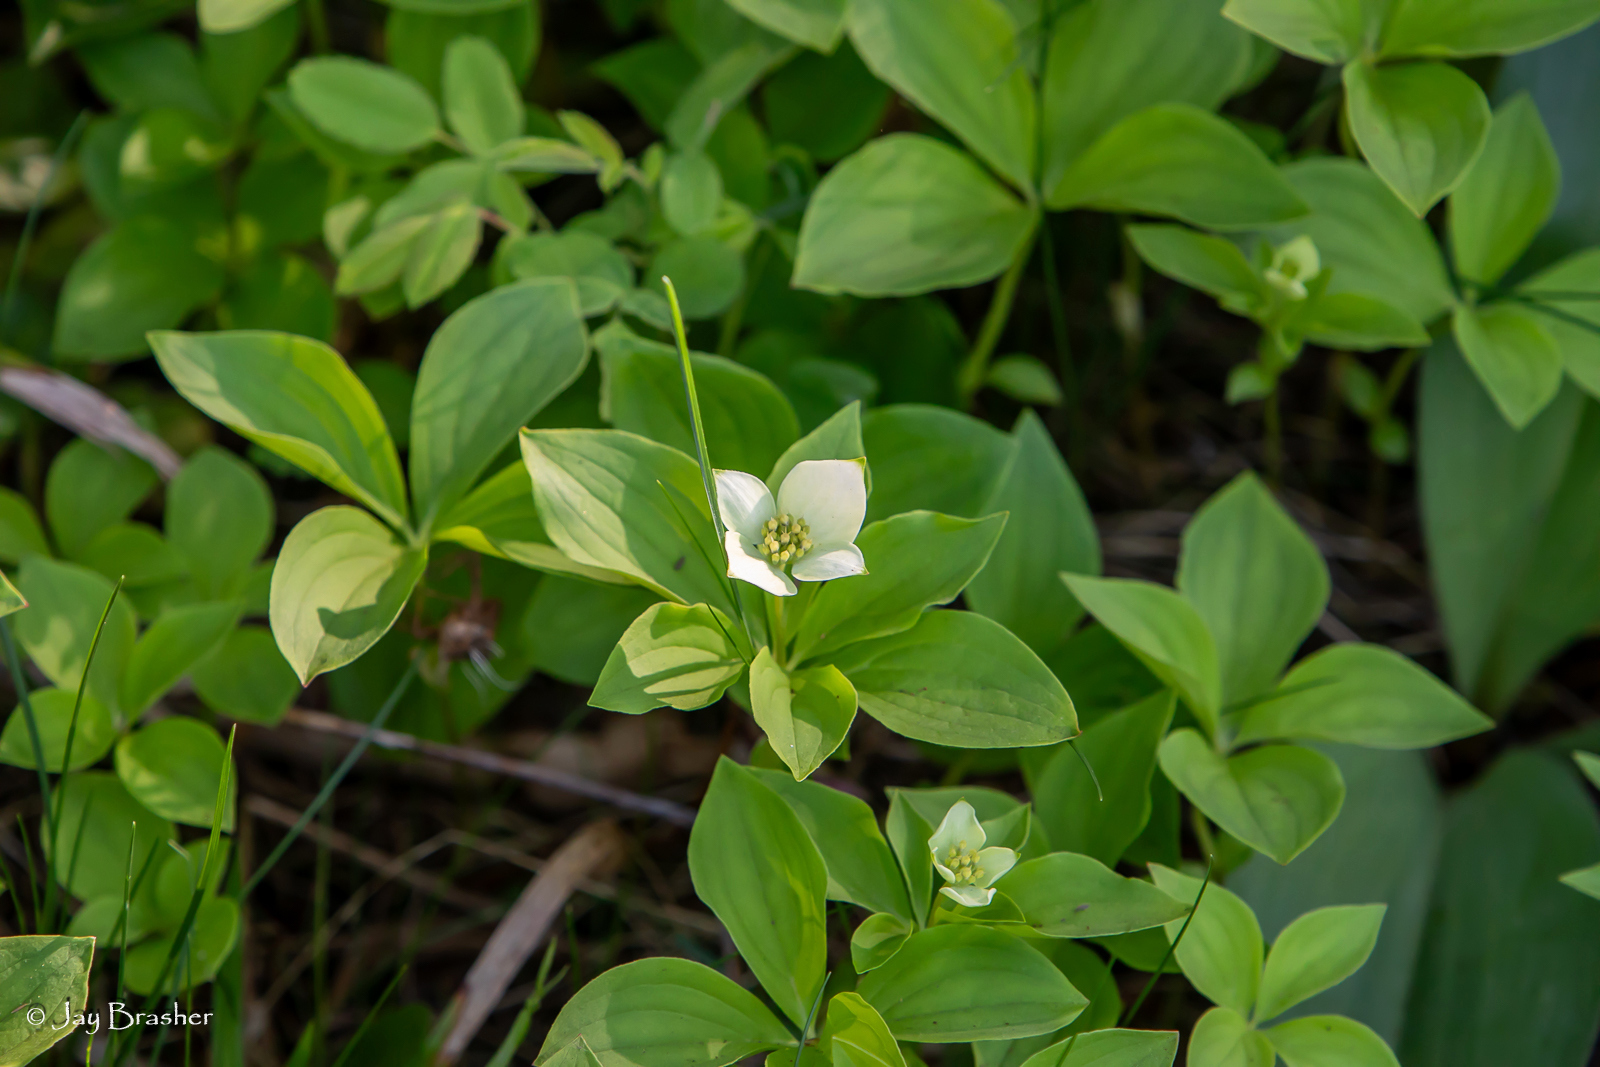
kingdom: Plantae
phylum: Tracheophyta
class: Magnoliopsida
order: Cornales
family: Cornaceae
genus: Cornus
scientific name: Cornus canadensis
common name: Creeping dogwood
